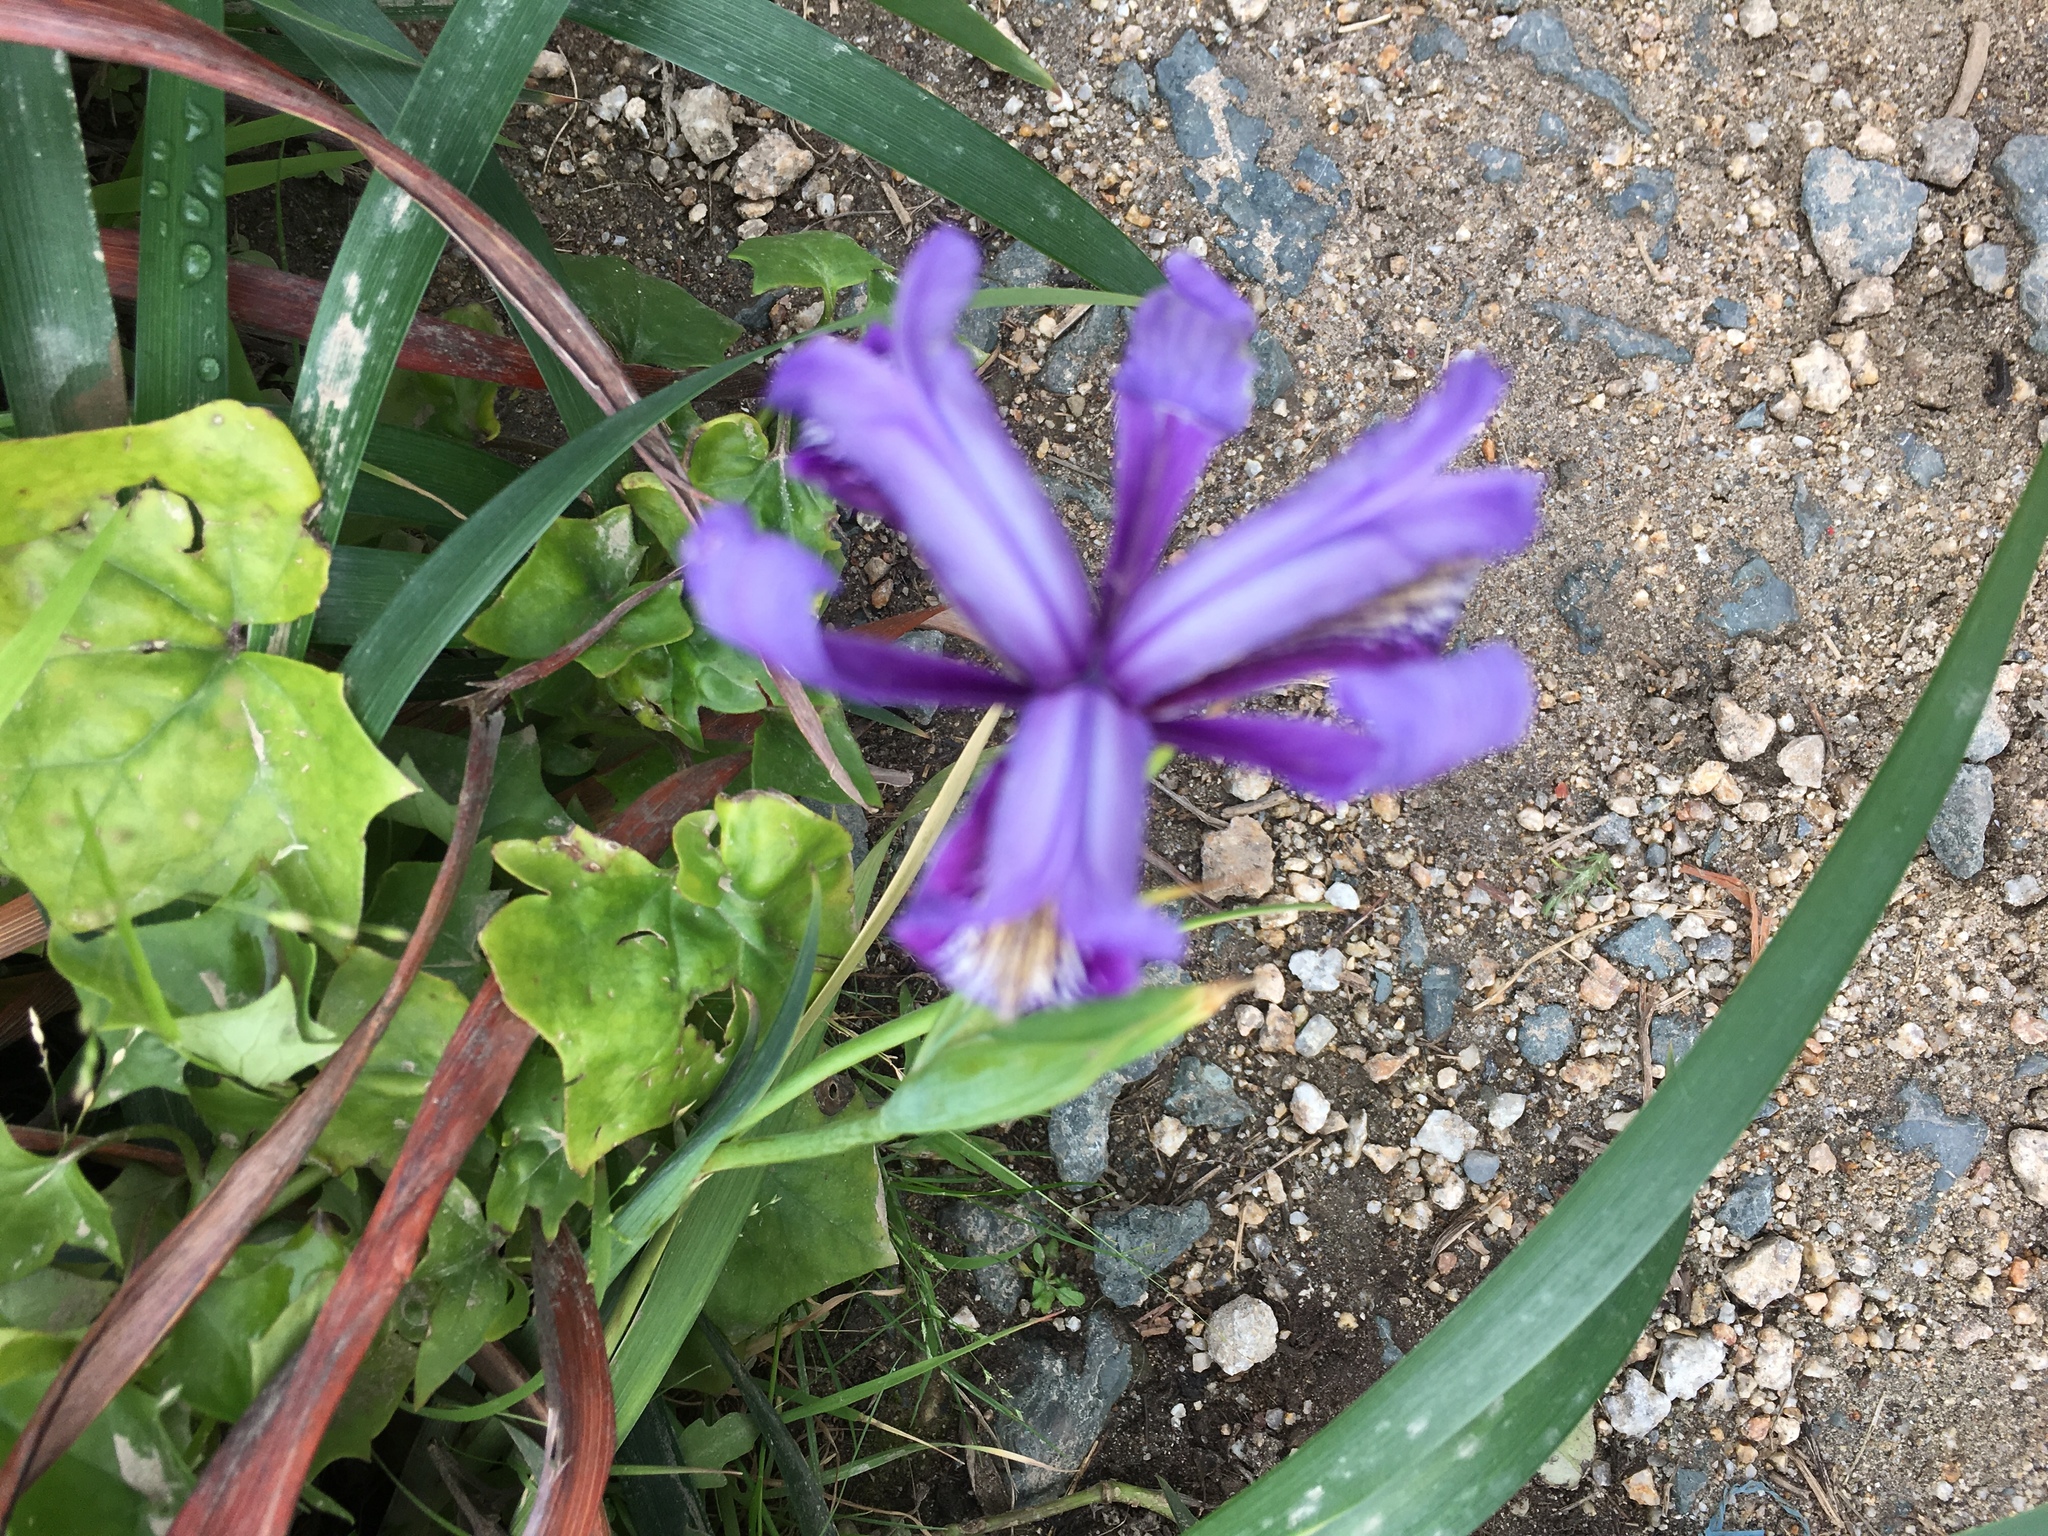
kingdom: Plantae
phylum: Tracheophyta
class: Liliopsida
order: Asparagales
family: Iridaceae
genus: Iris
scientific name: Iris douglasiana
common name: Marin iris
